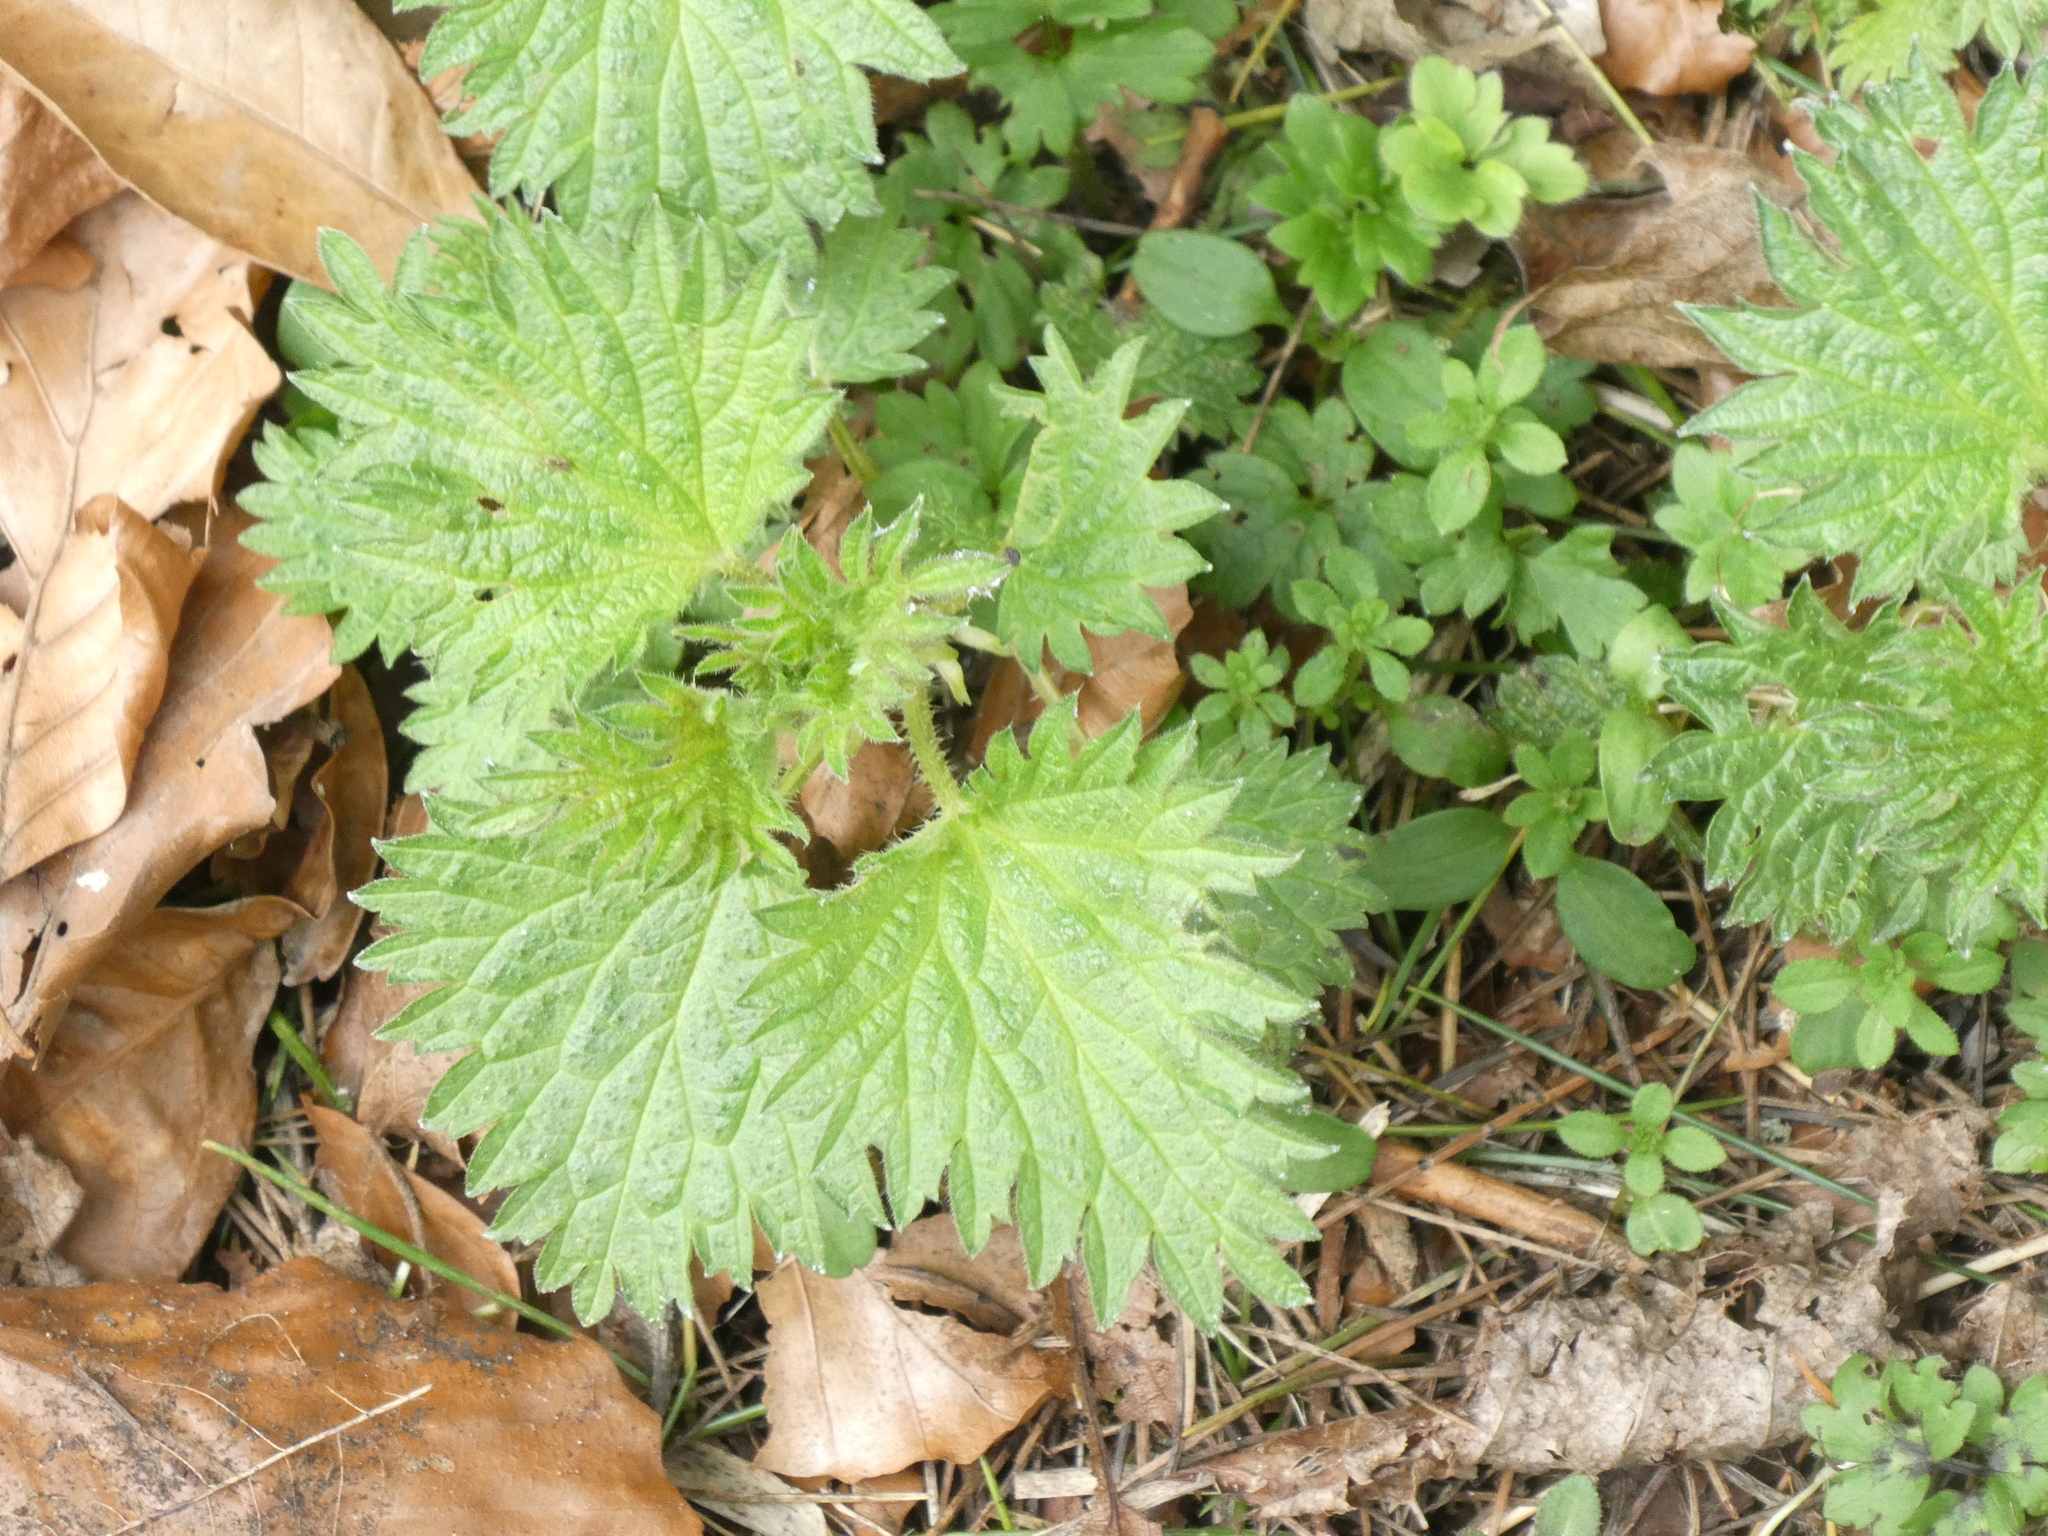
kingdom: Plantae
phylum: Tracheophyta
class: Magnoliopsida
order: Rosales
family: Urticaceae
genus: Urtica
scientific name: Urtica dioica
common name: Common nettle
